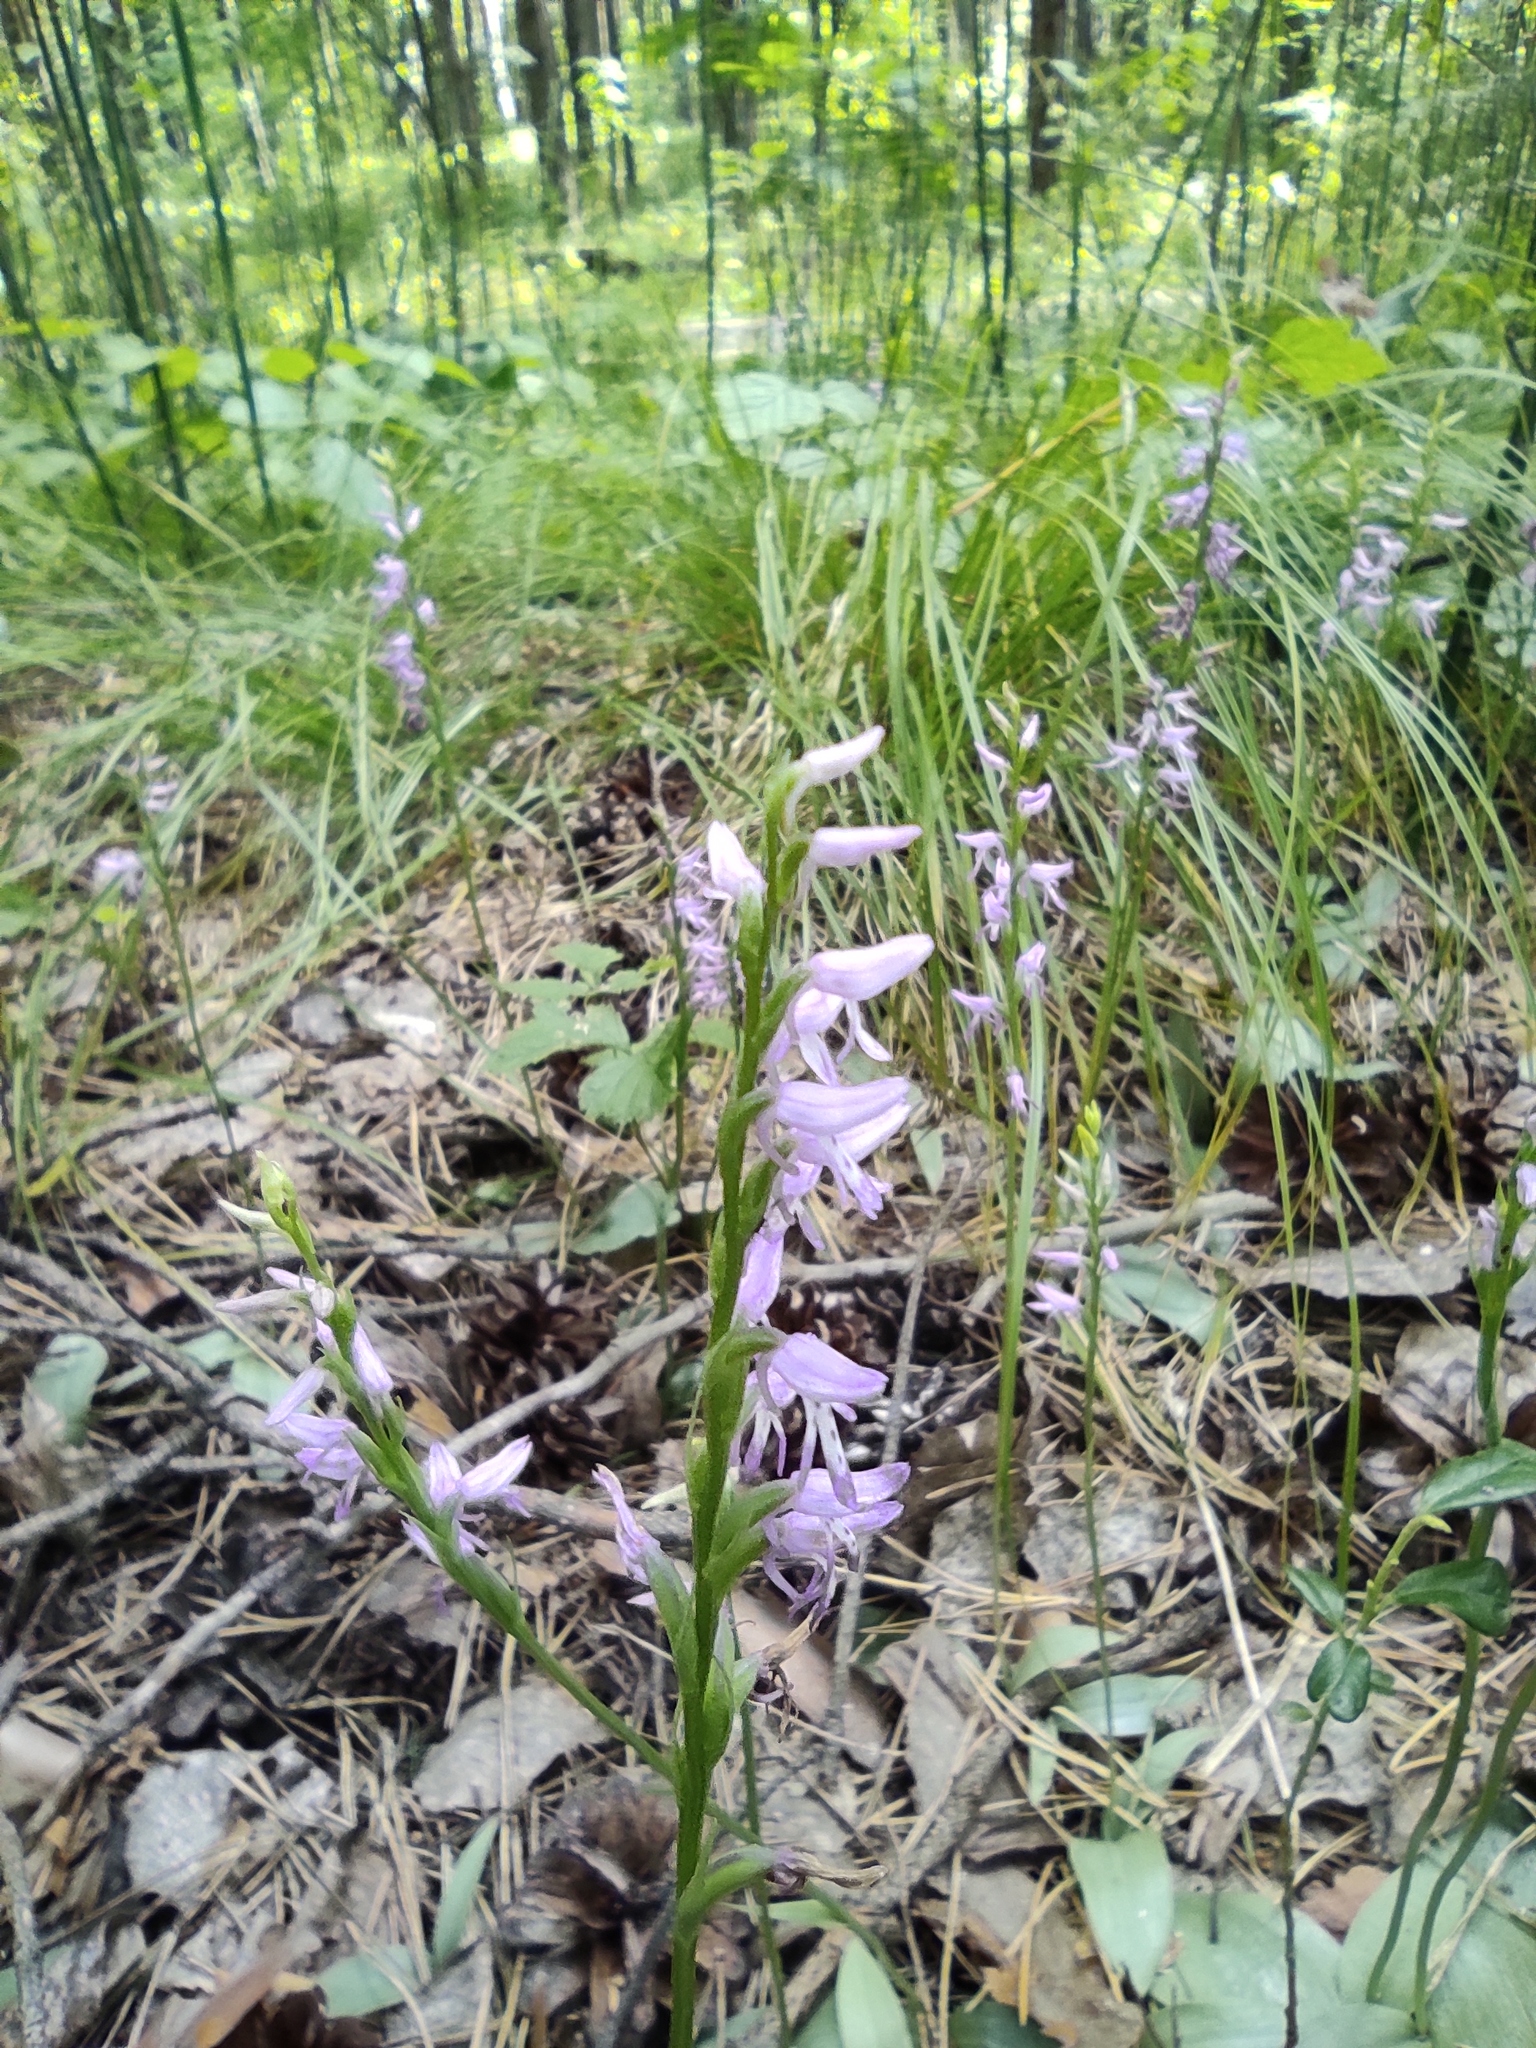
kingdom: Plantae
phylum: Tracheophyta
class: Liliopsida
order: Asparagales
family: Orchidaceae
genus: Hemipilia
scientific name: Hemipilia cucullata
